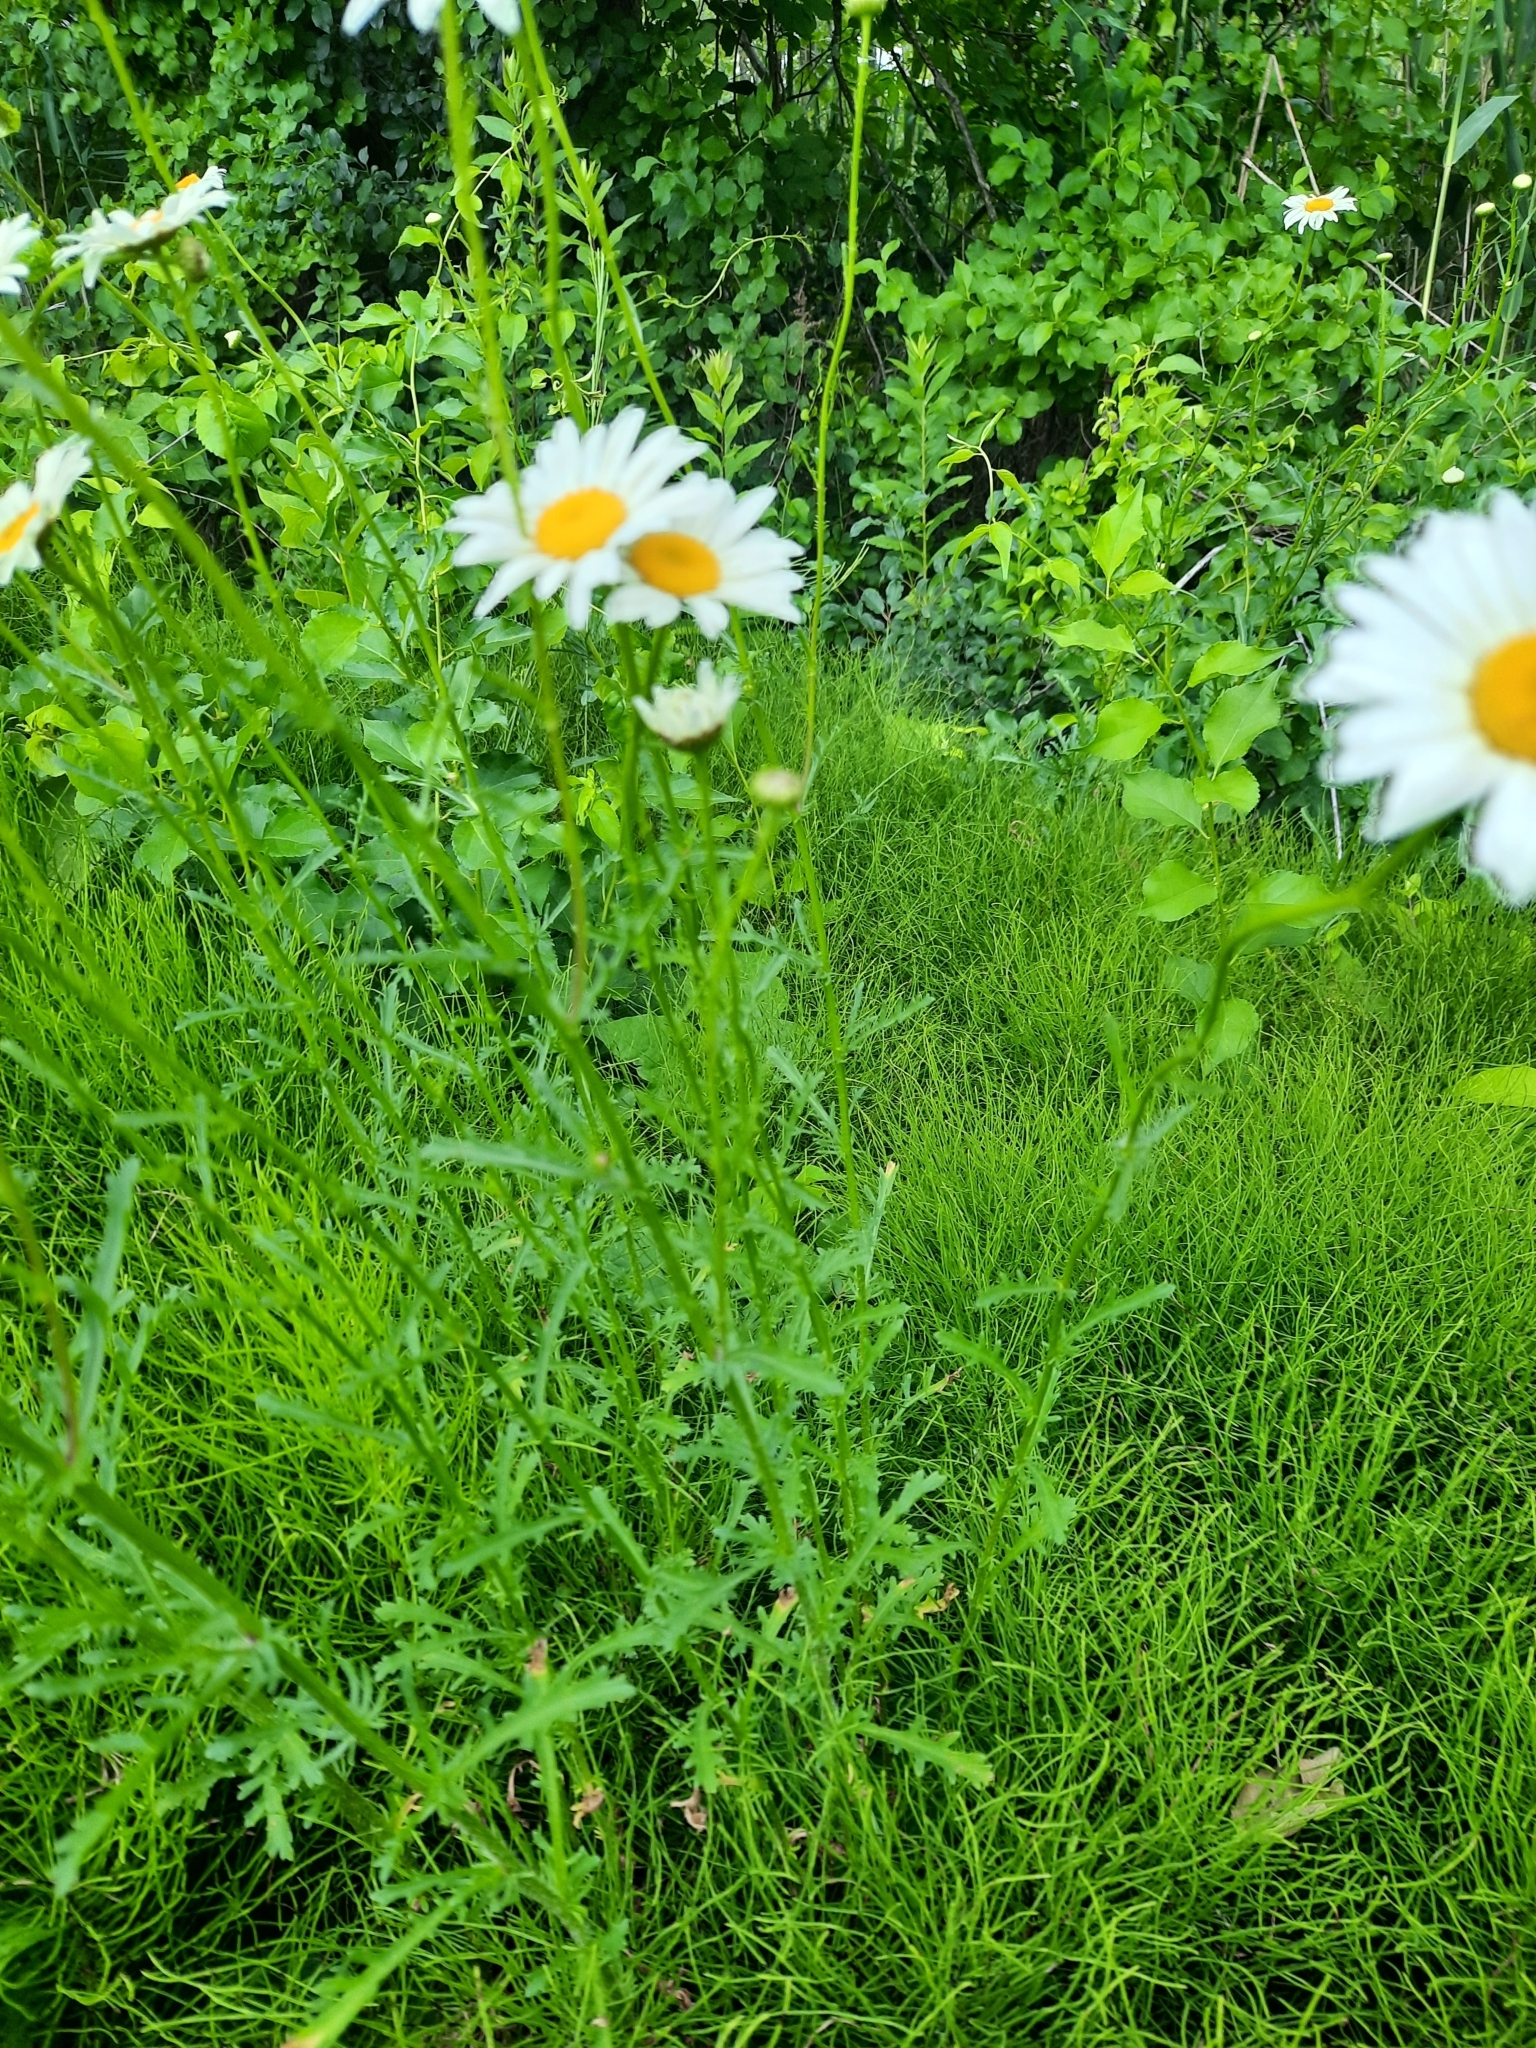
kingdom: Plantae
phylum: Tracheophyta
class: Magnoliopsida
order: Asterales
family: Asteraceae
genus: Leucanthemum
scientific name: Leucanthemum vulgare
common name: Oxeye daisy
